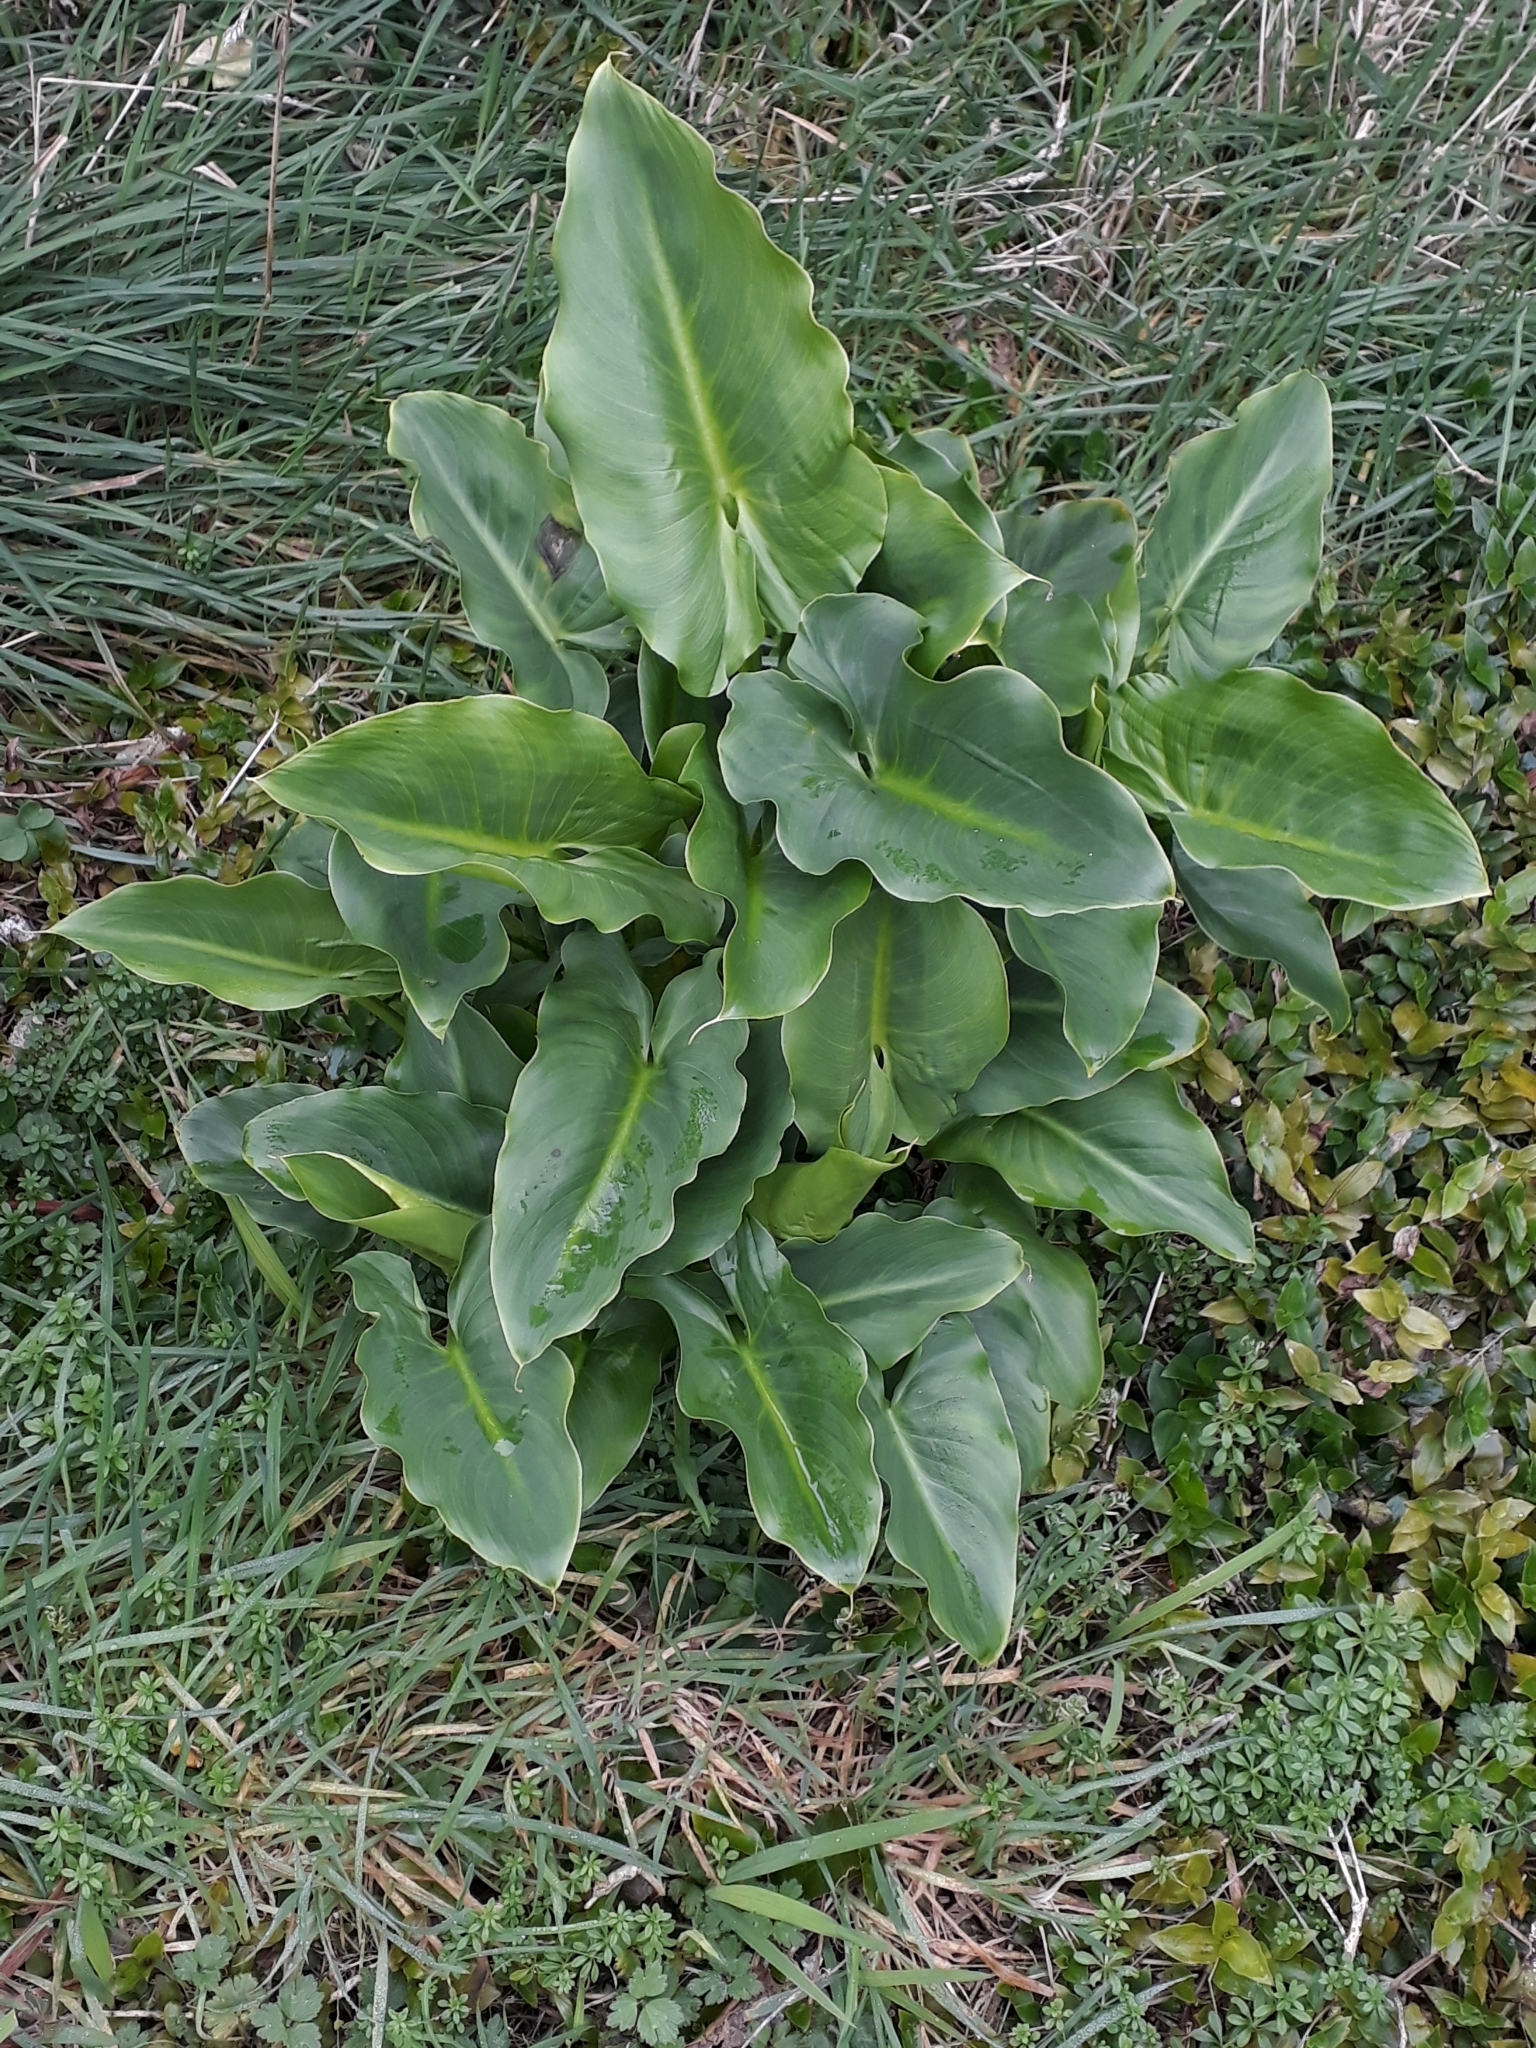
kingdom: Plantae
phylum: Tracheophyta
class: Liliopsida
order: Alismatales
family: Araceae
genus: Zantedeschia
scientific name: Zantedeschia aethiopica
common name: Altar-lily
